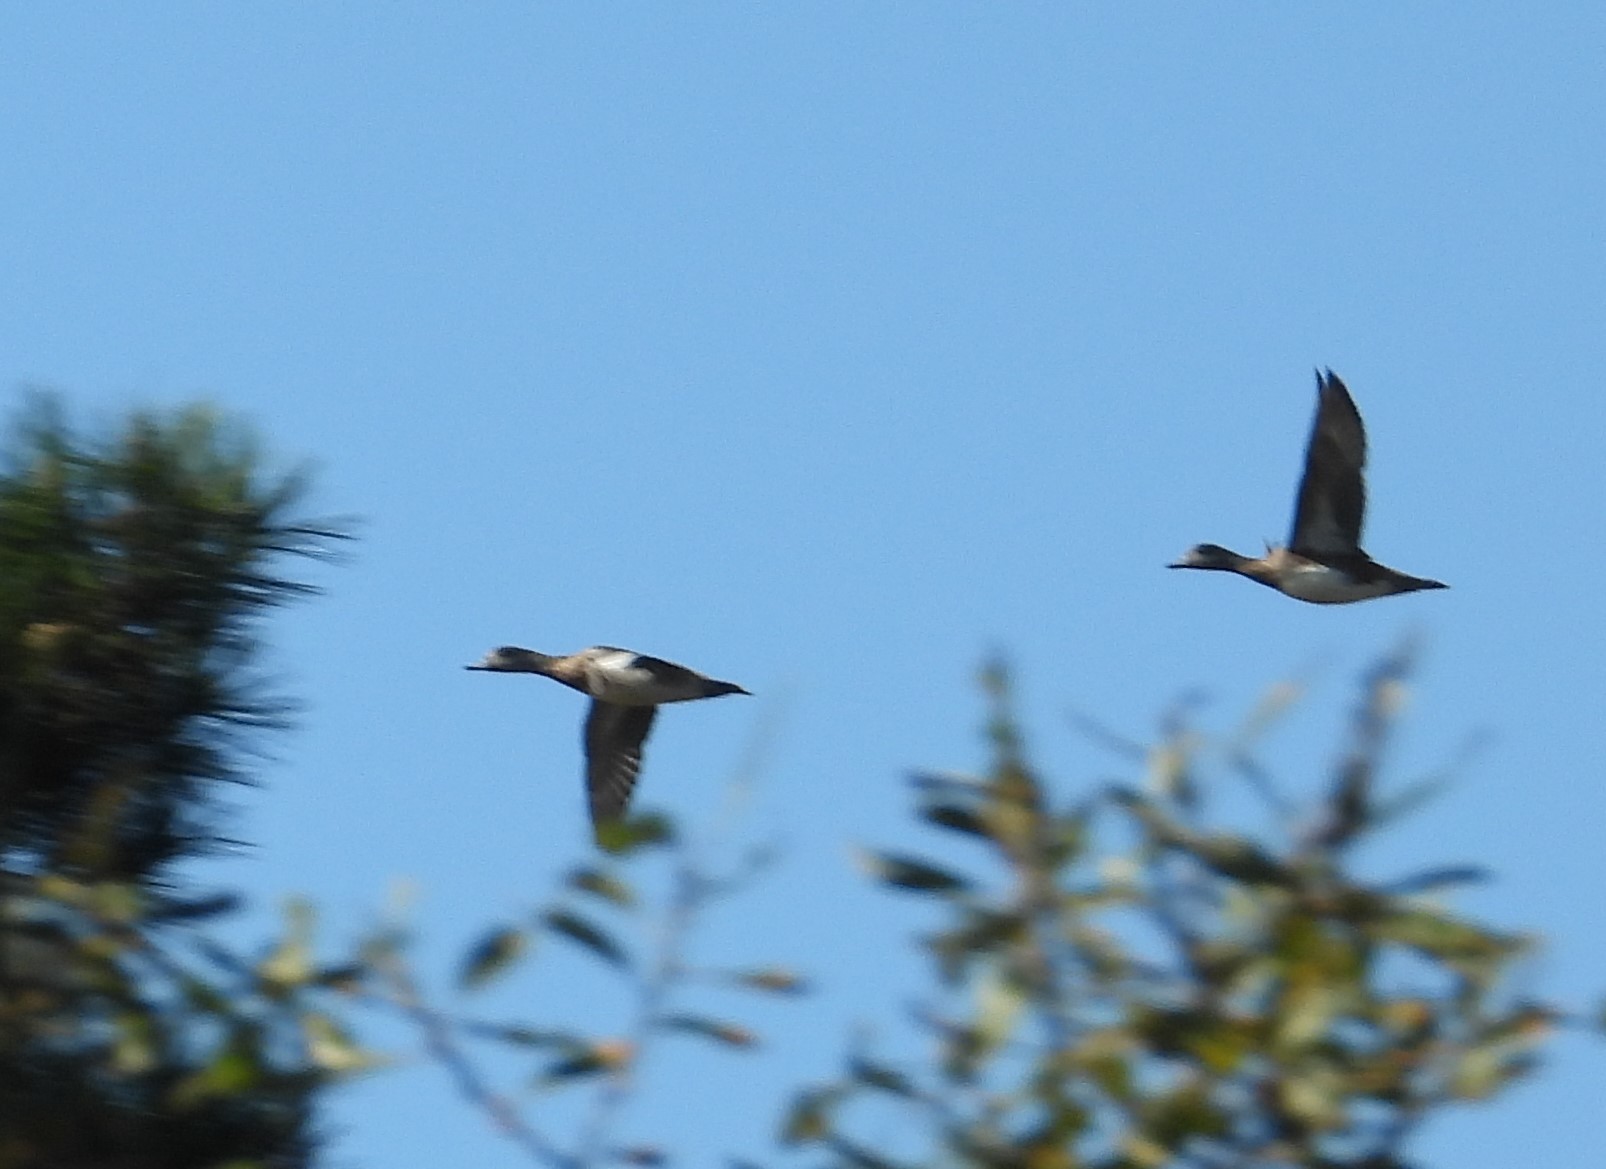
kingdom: Animalia
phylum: Chordata
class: Aves
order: Anseriformes
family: Anatidae
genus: Mareca
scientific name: Mareca americana
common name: American wigeon
